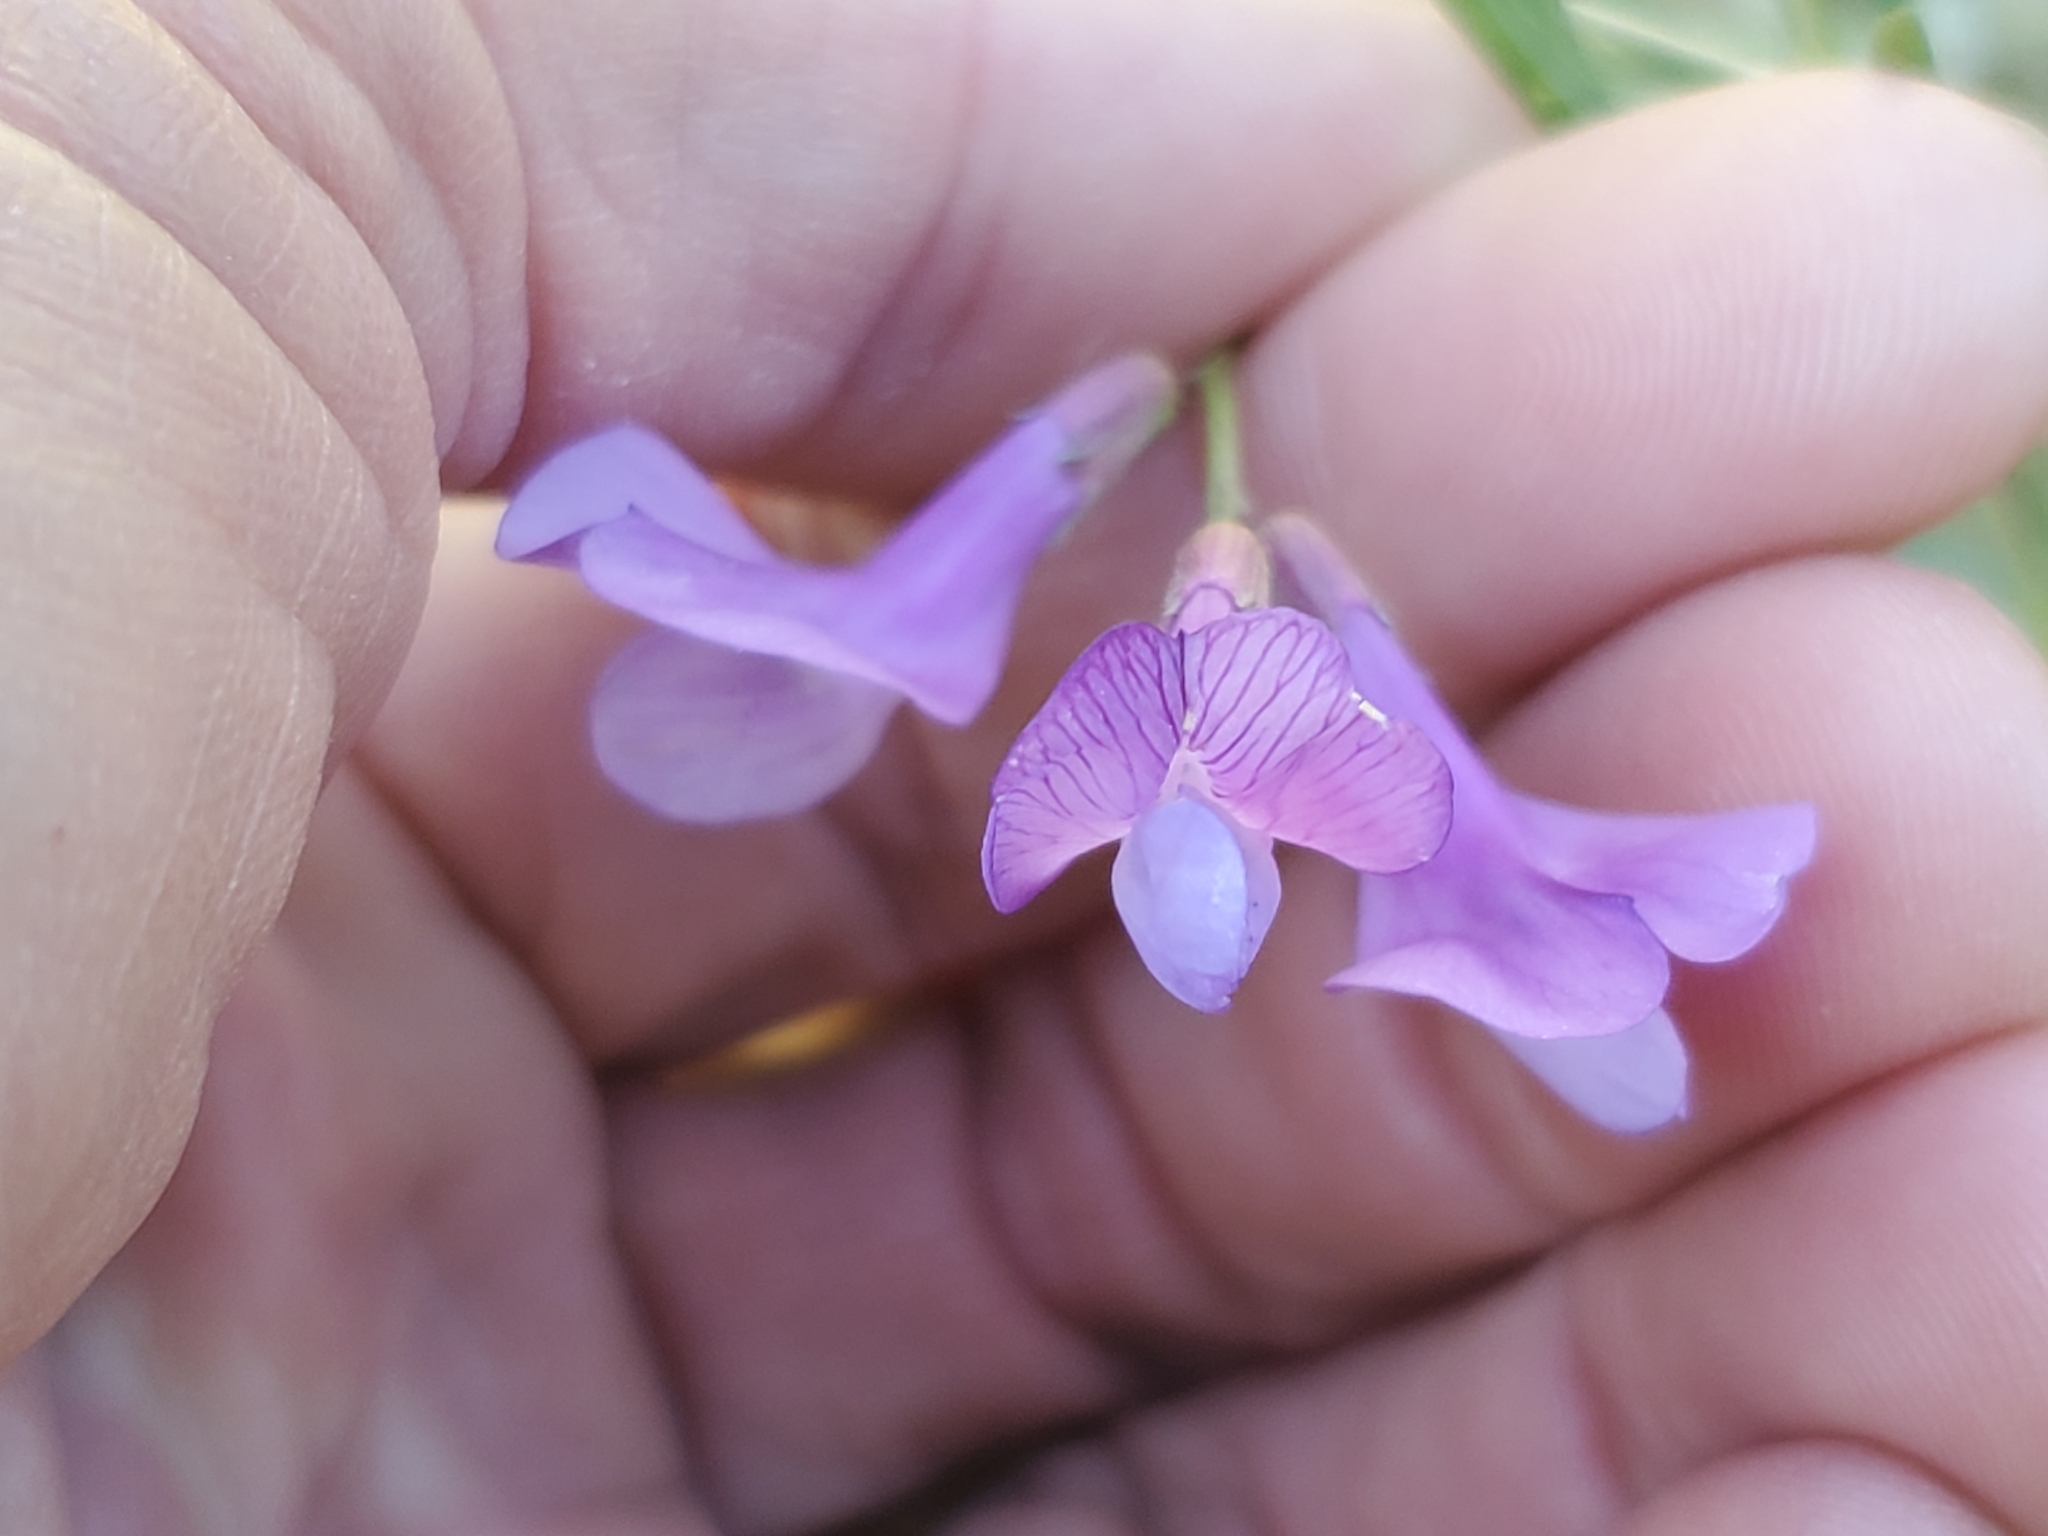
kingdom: Plantae
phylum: Tracheophyta
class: Magnoliopsida
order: Fabales
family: Fabaceae
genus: Vicia
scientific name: Vicia americana
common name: American vetch
